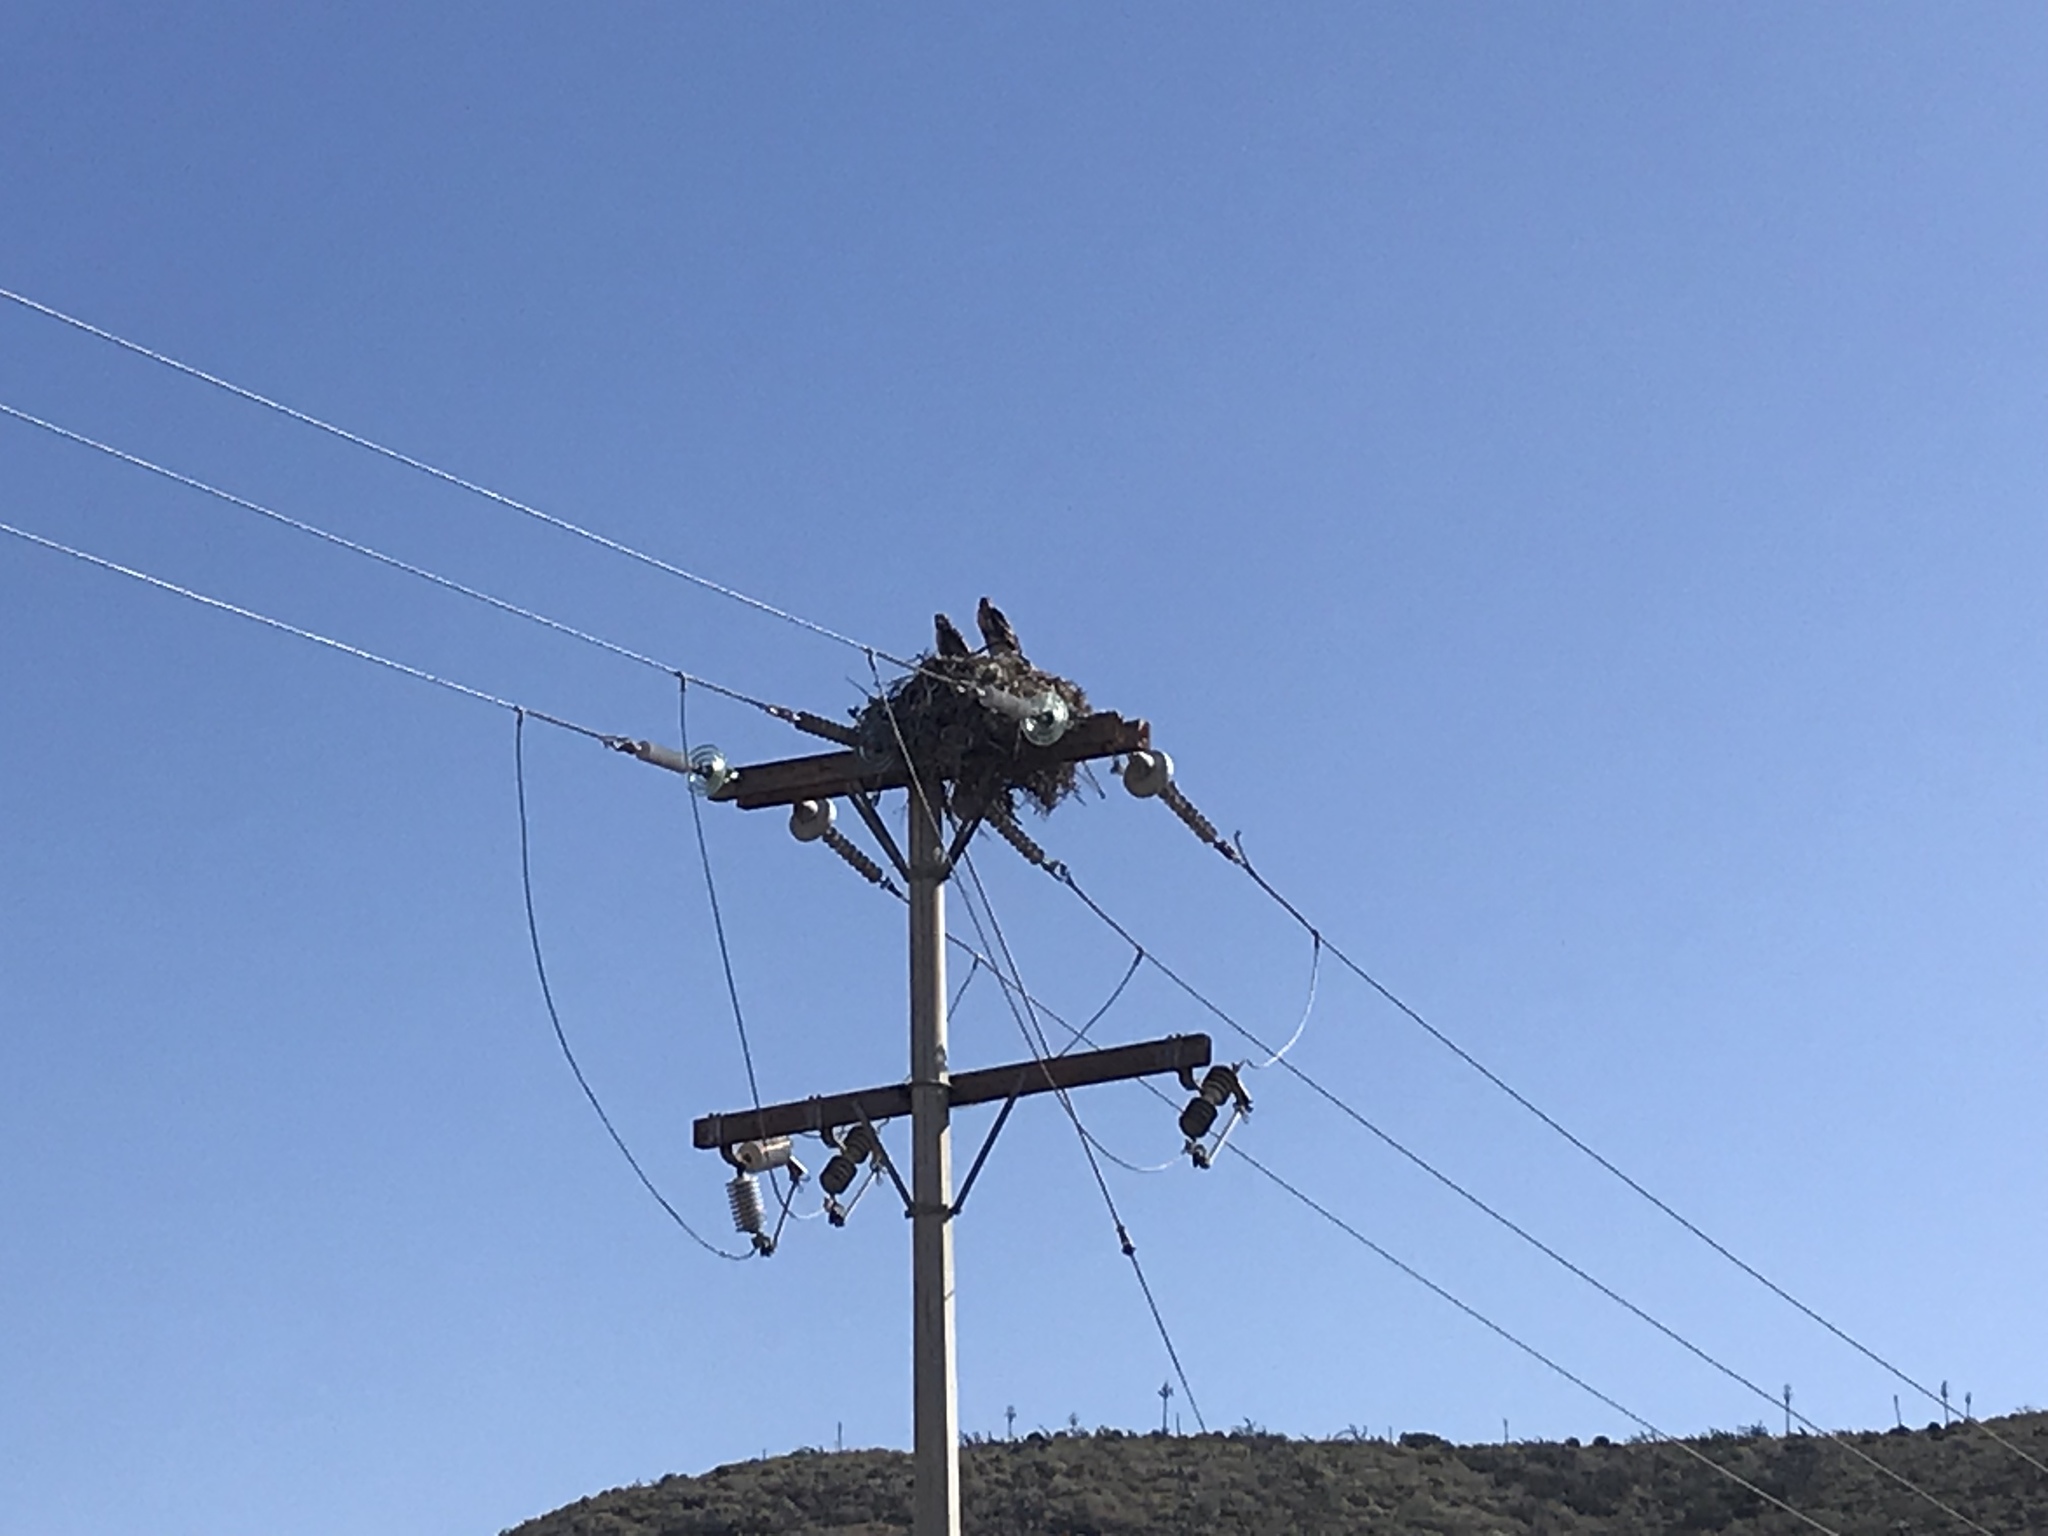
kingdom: Animalia
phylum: Chordata
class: Aves
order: Accipitriformes
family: Accipitridae
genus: Buteo
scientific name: Buteo jamaicensis
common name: Red-tailed hawk
